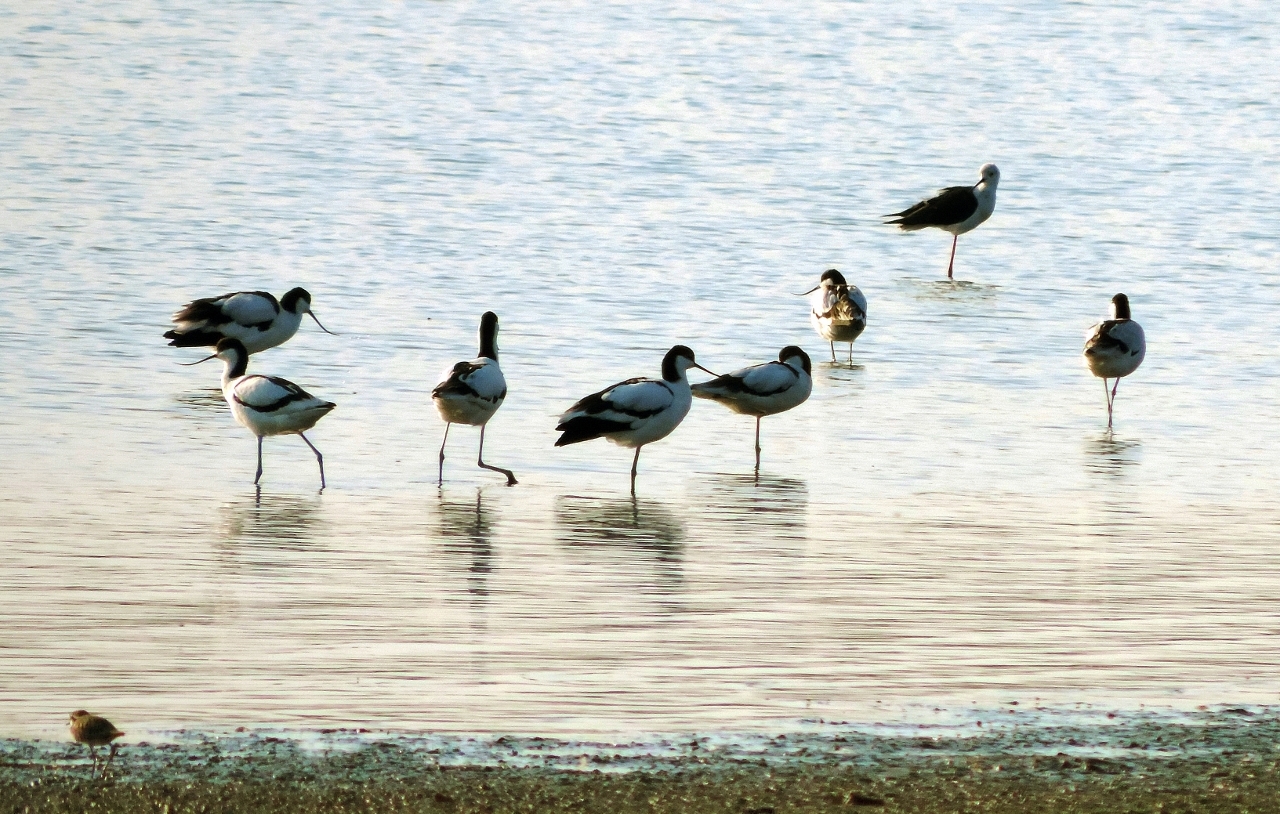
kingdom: Animalia
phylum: Chordata
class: Aves
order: Charadriiformes
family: Recurvirostridae
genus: Recurvirostra
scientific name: Recurvirostra avosetta
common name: Pied avocet
